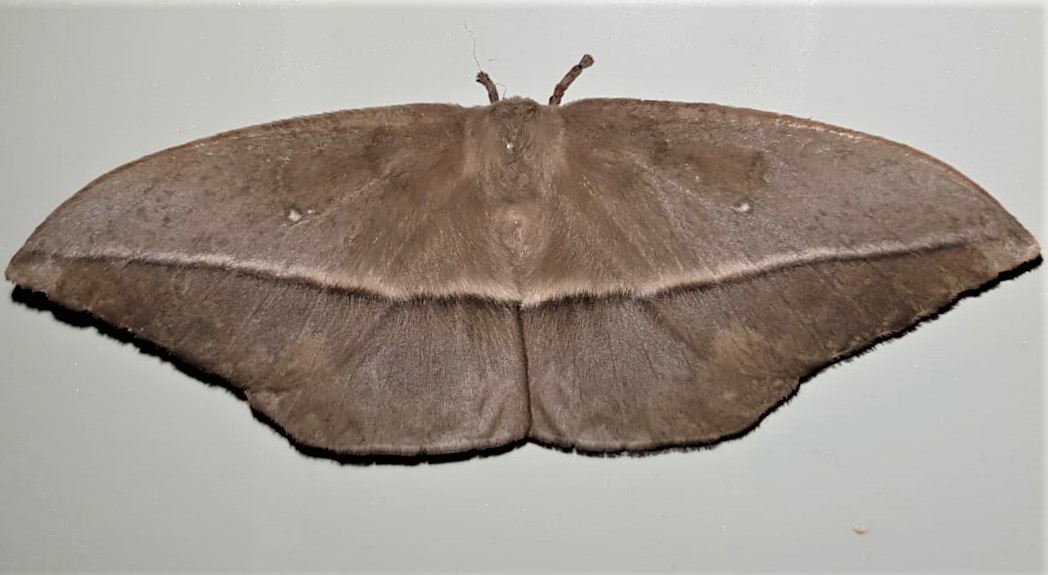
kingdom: Animalia
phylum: Arthropoda
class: Insecta
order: Lepidoptera
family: Saturniidae
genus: Lonomia
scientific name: Lonomia descimoni
